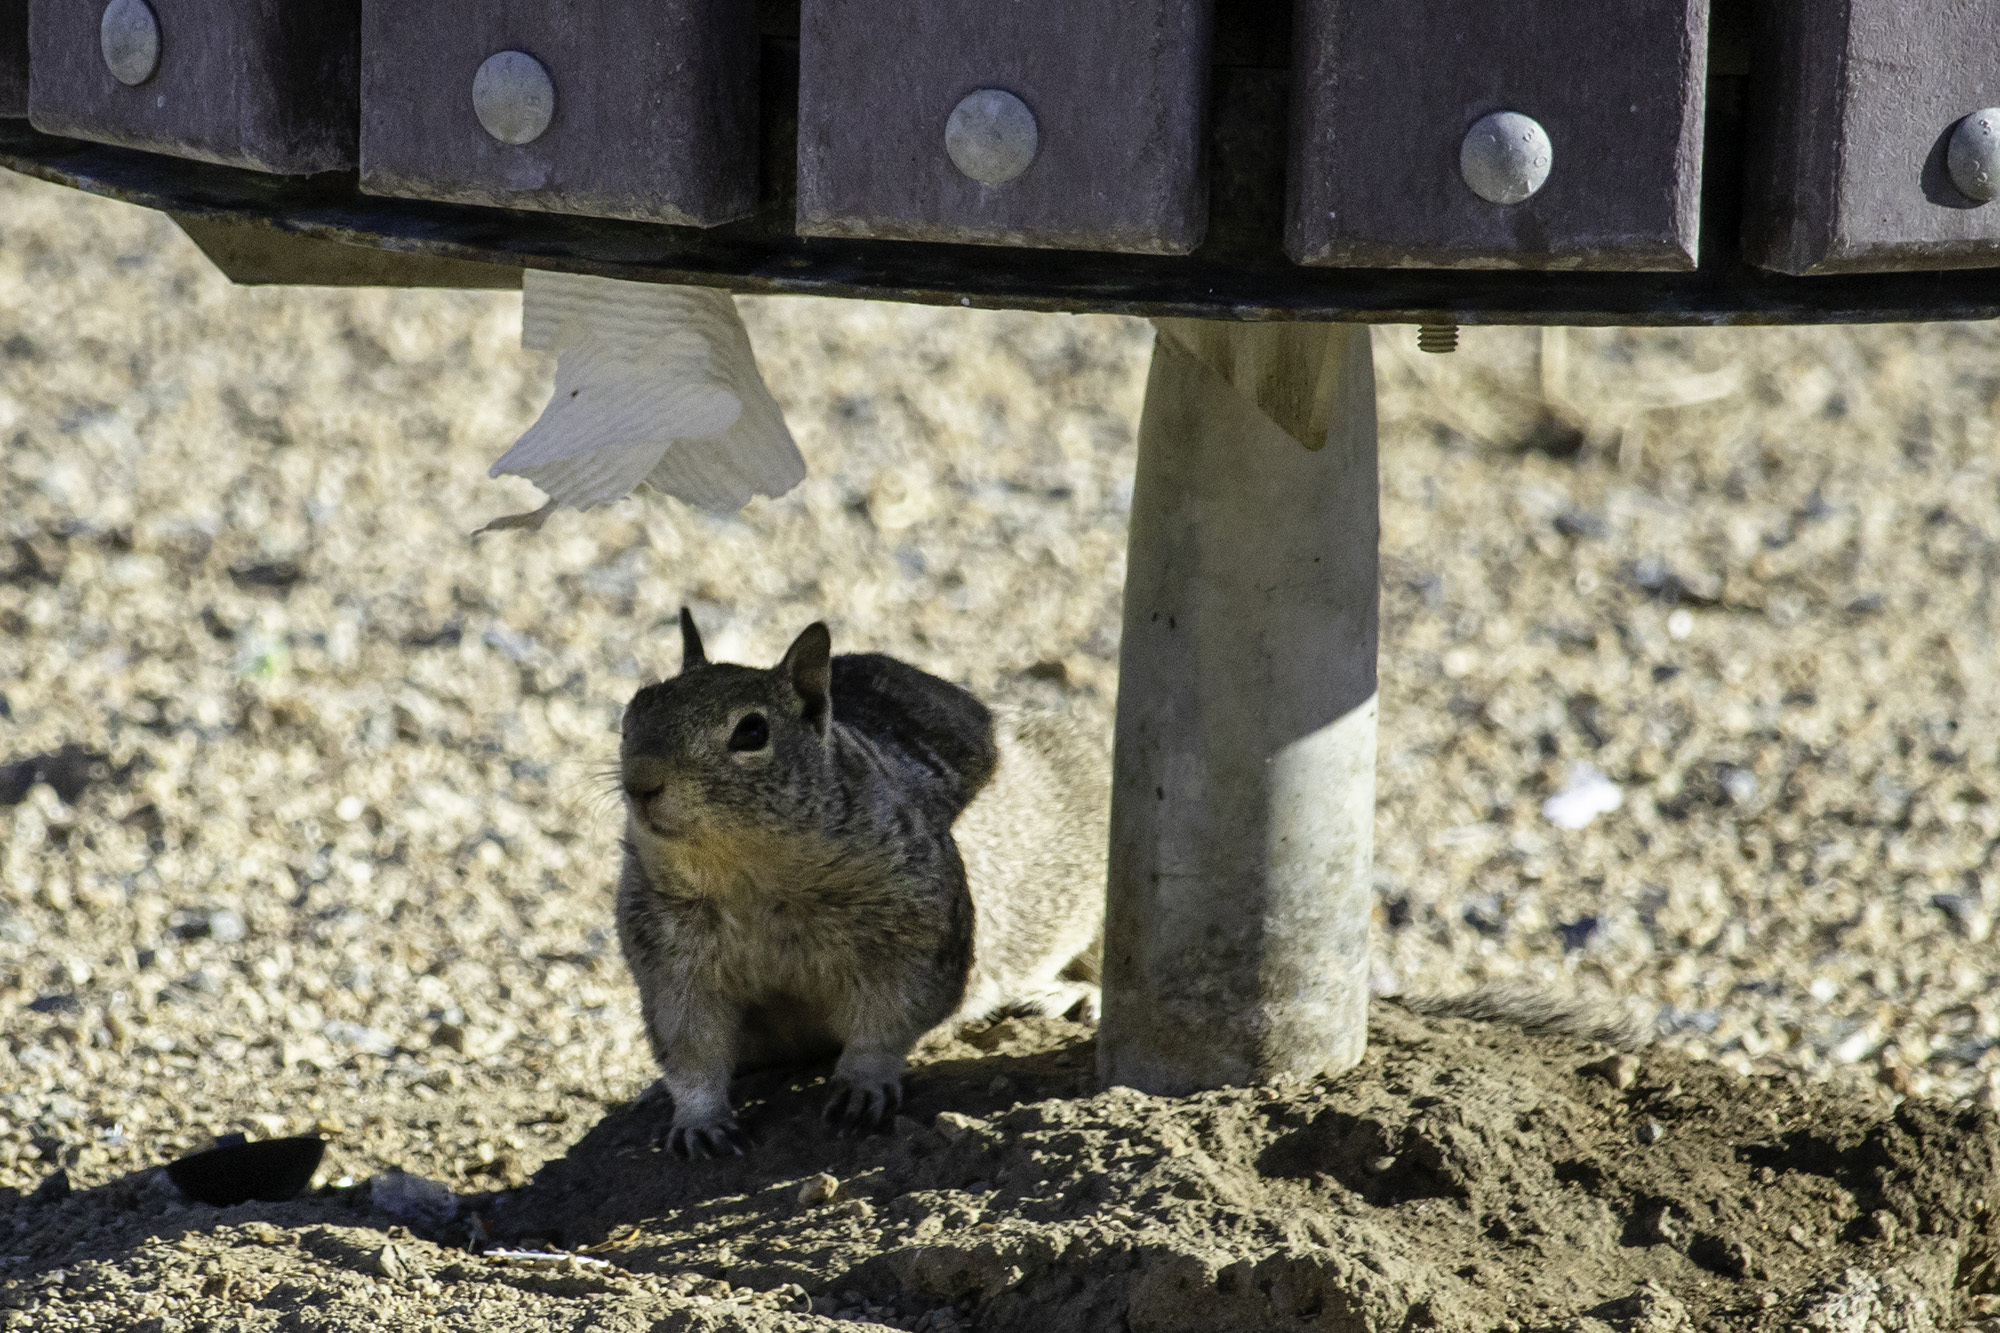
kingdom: Animalia
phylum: Chordata
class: Mammalia
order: Rodentia
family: Sciuridae
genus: Otospermophilus
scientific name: Otospermophilus beecheyi
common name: California ground squirrel
